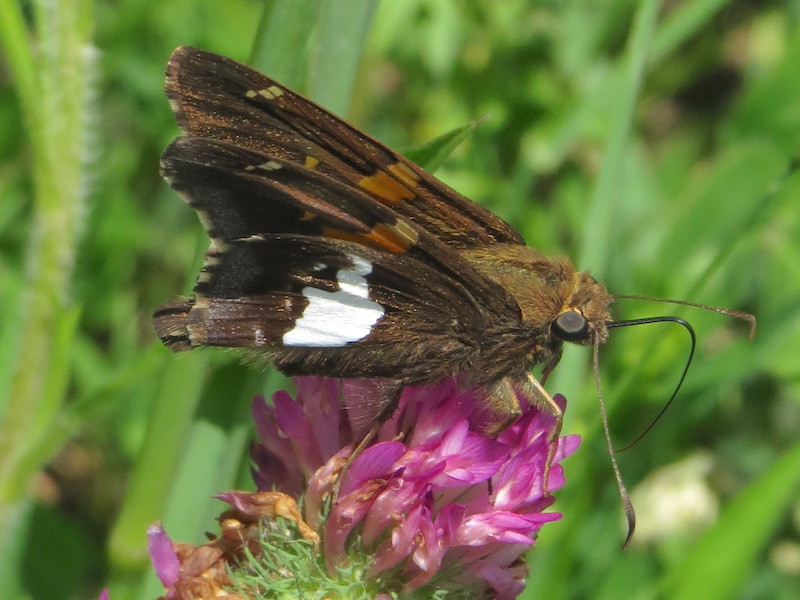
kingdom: Animalia
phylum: Arthropoda
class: Insecta
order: Lepidoptera
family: Hesperiidae
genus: Epargyreus
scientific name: Epargyreus clarus
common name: Silver-spotted skipper
